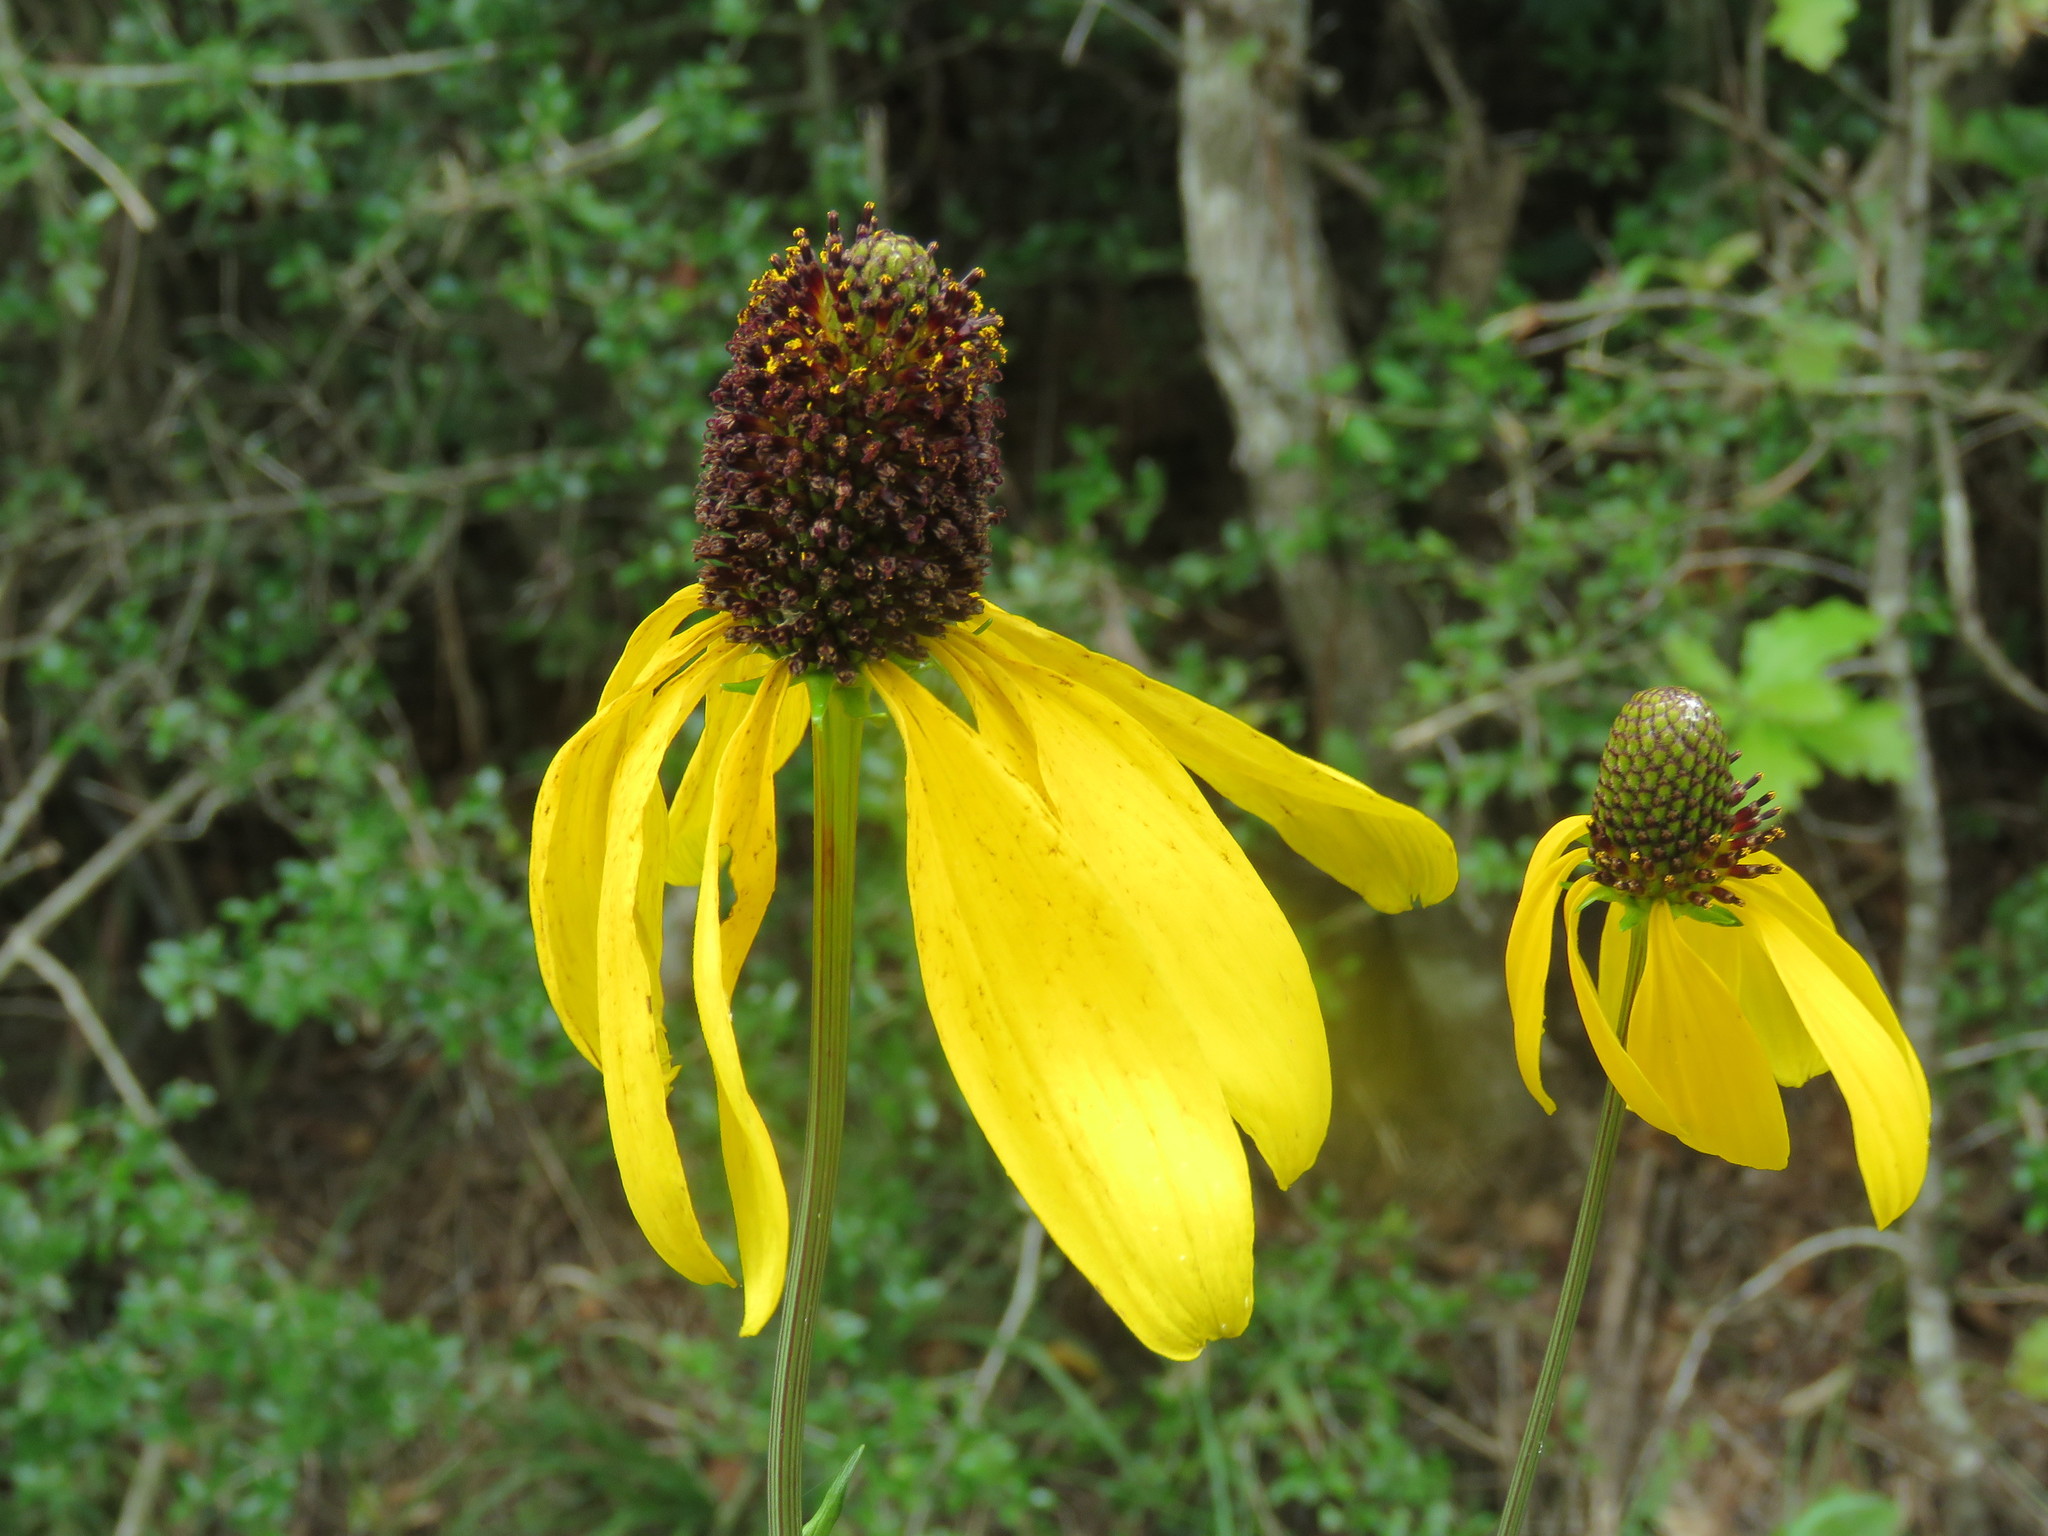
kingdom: Plantae
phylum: Tracheophyta
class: Magnoliopsida
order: Asterales
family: Asteraceae
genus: Rudbeckia
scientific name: Rudbeckia texana
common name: Texas coneflower
